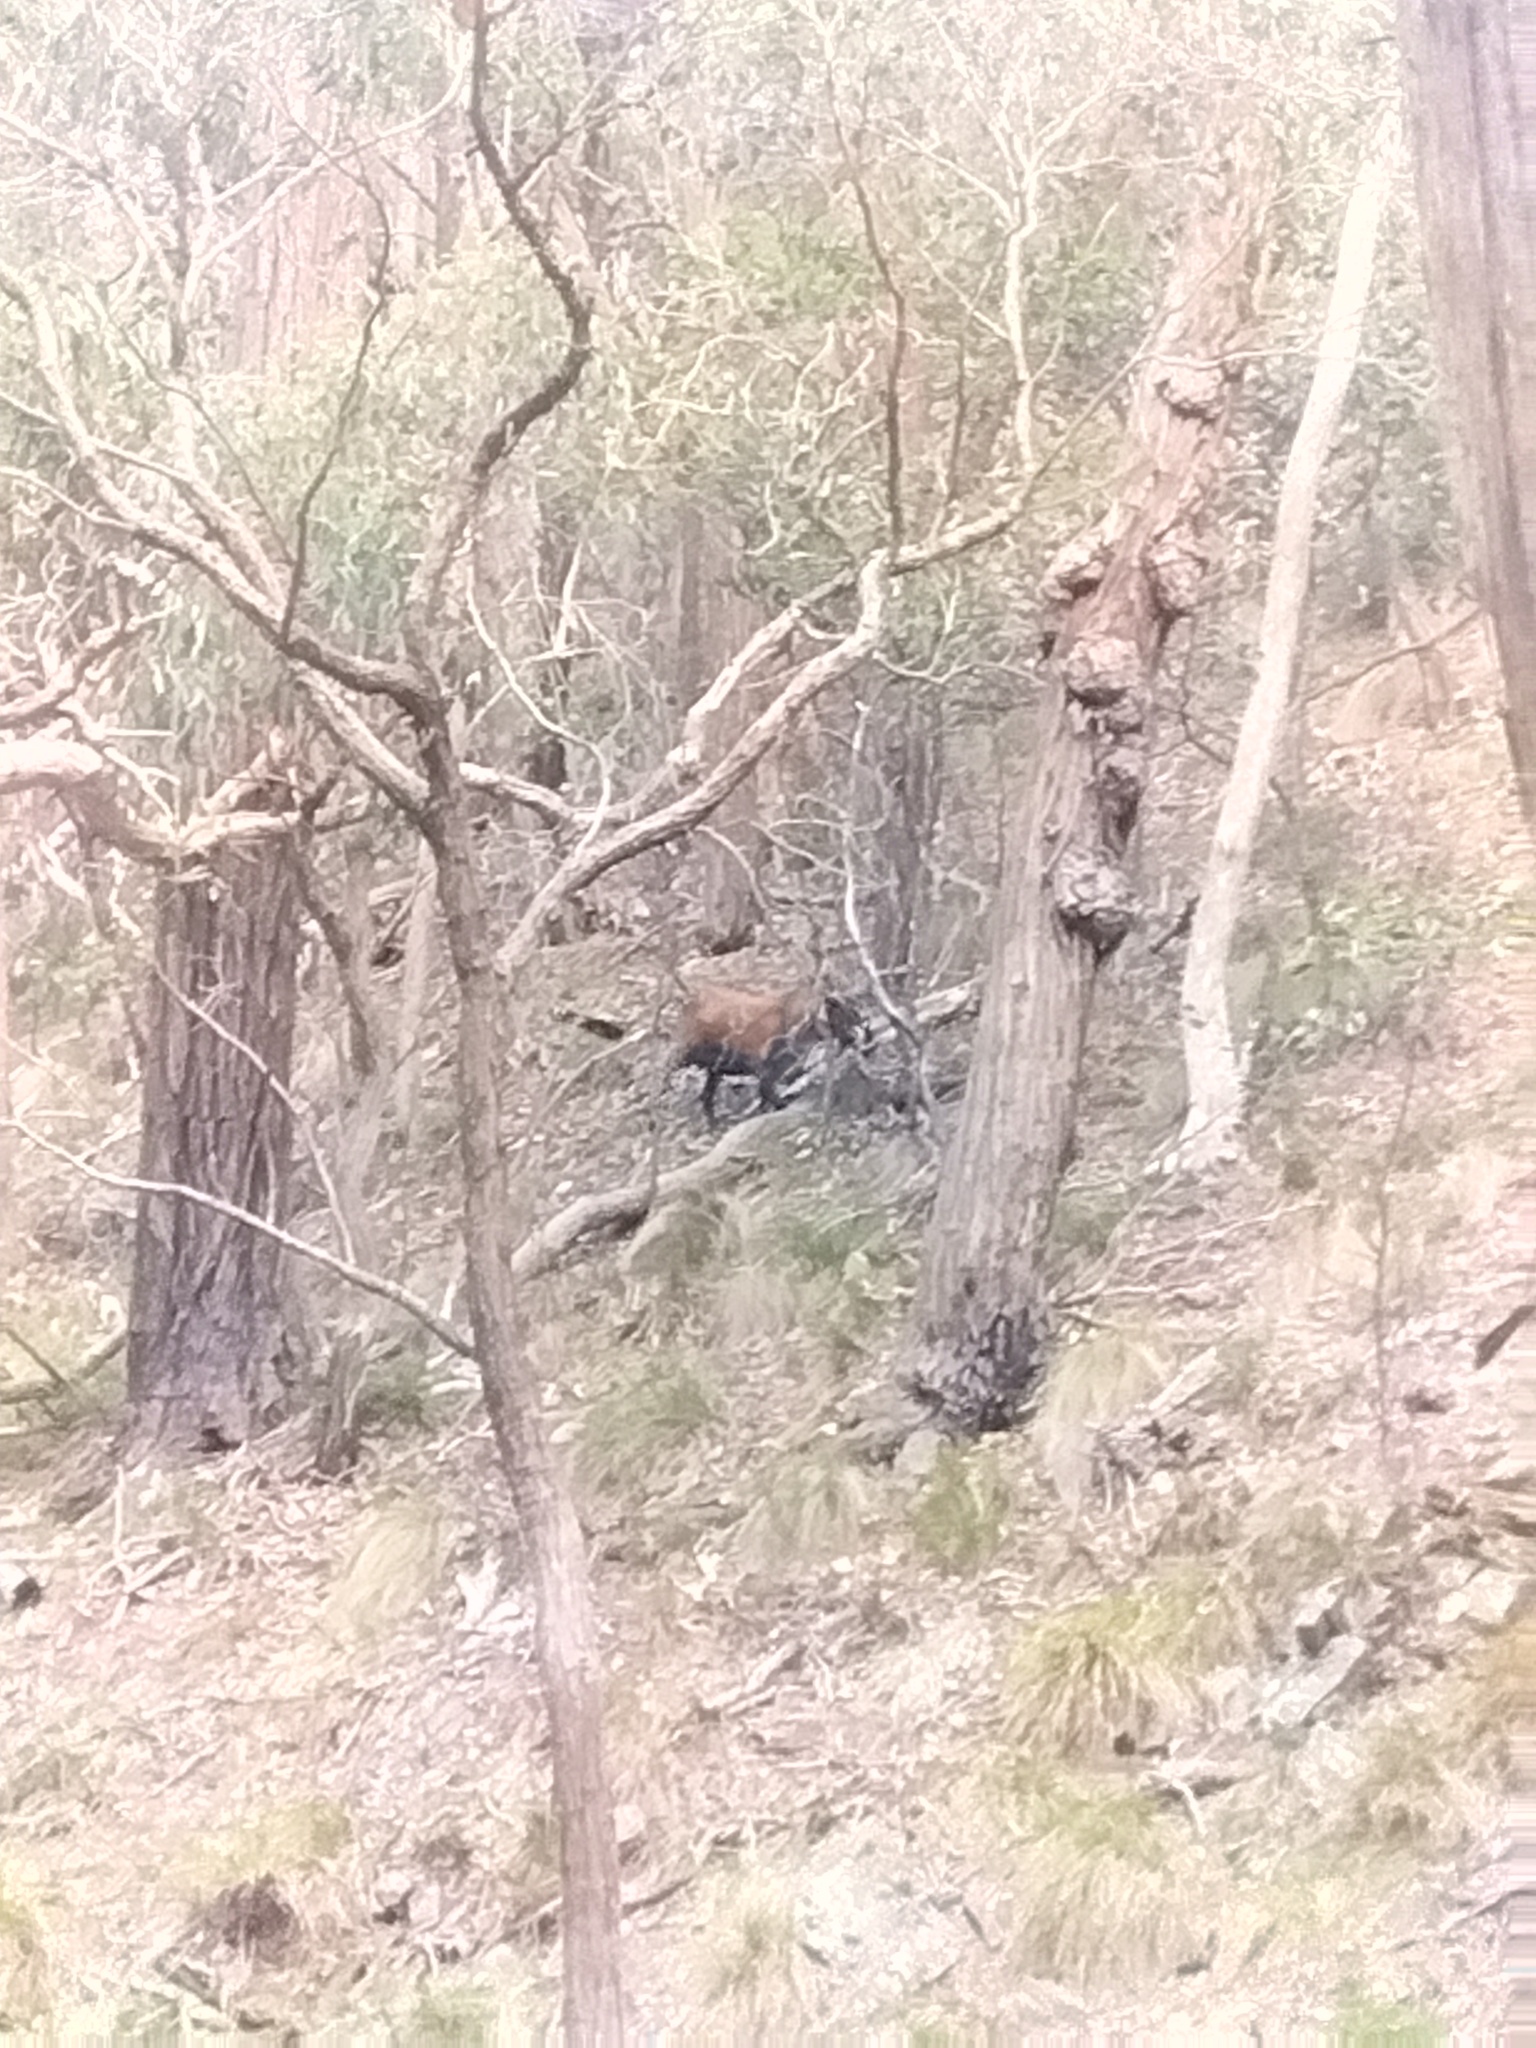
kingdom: Animalia
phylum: Chordata
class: Mammalia
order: Artiodactyla
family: Bovidae
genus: Capra
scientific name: Capra hircus
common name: Domestic goat
